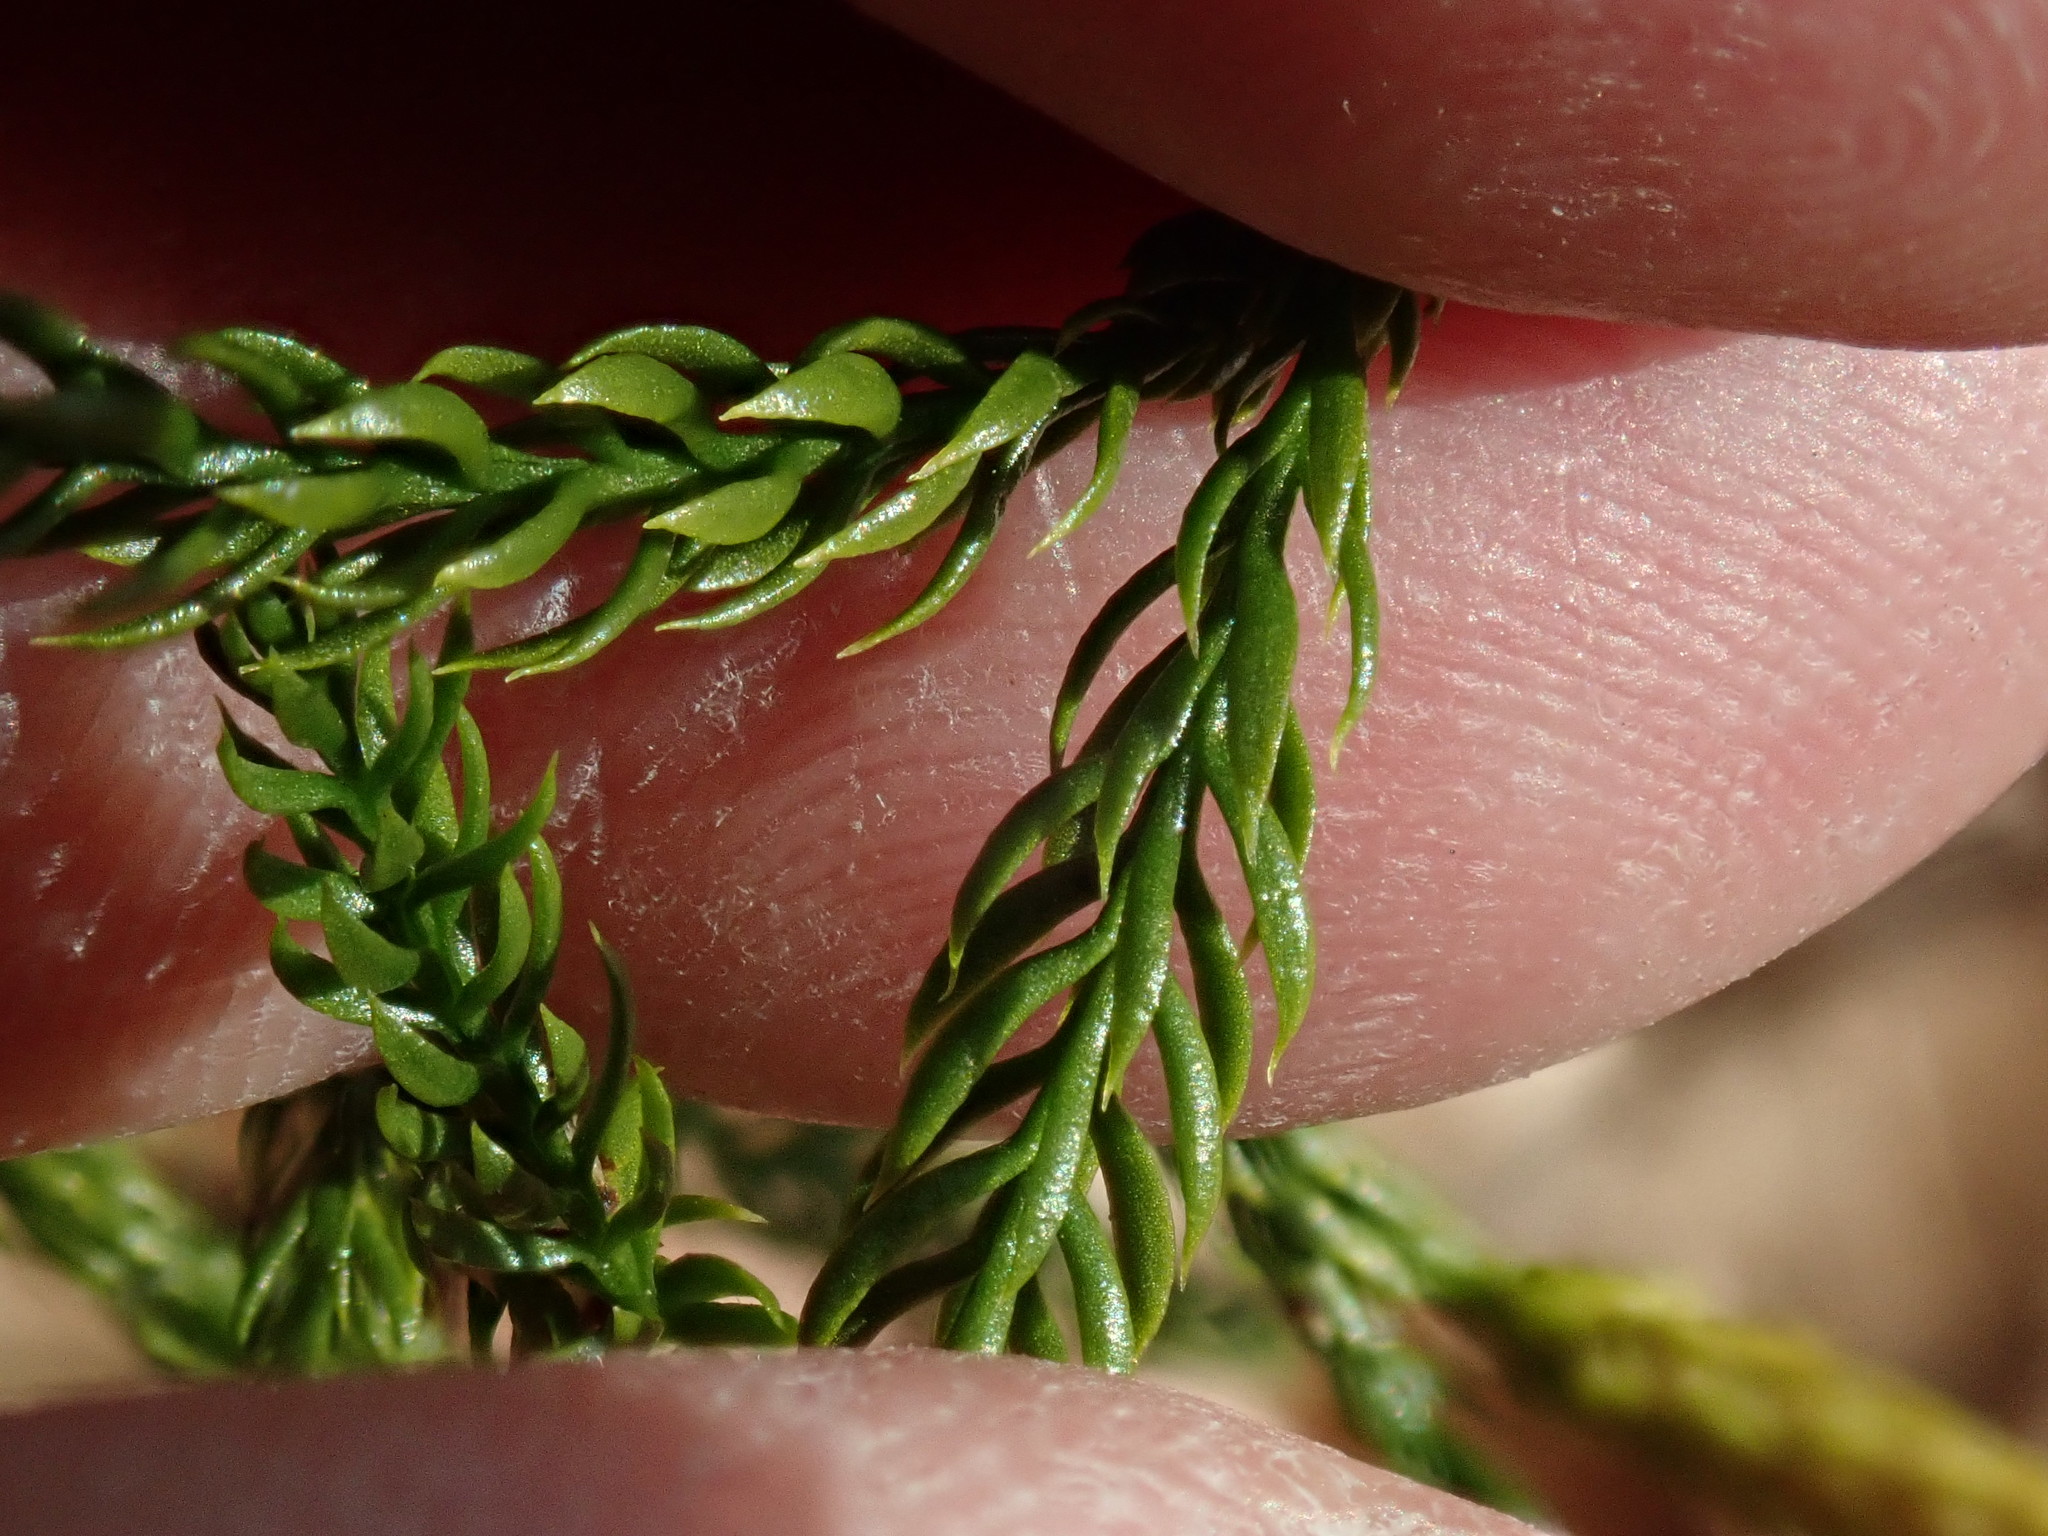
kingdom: Plantae
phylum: Tracheophyta
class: Lycopodiopsida
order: Lycopodiales
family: Lycopodiaceae
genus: Dendrolycopodium
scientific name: Dendrolycopodium hickeyi
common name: Hickey's clubmoss
